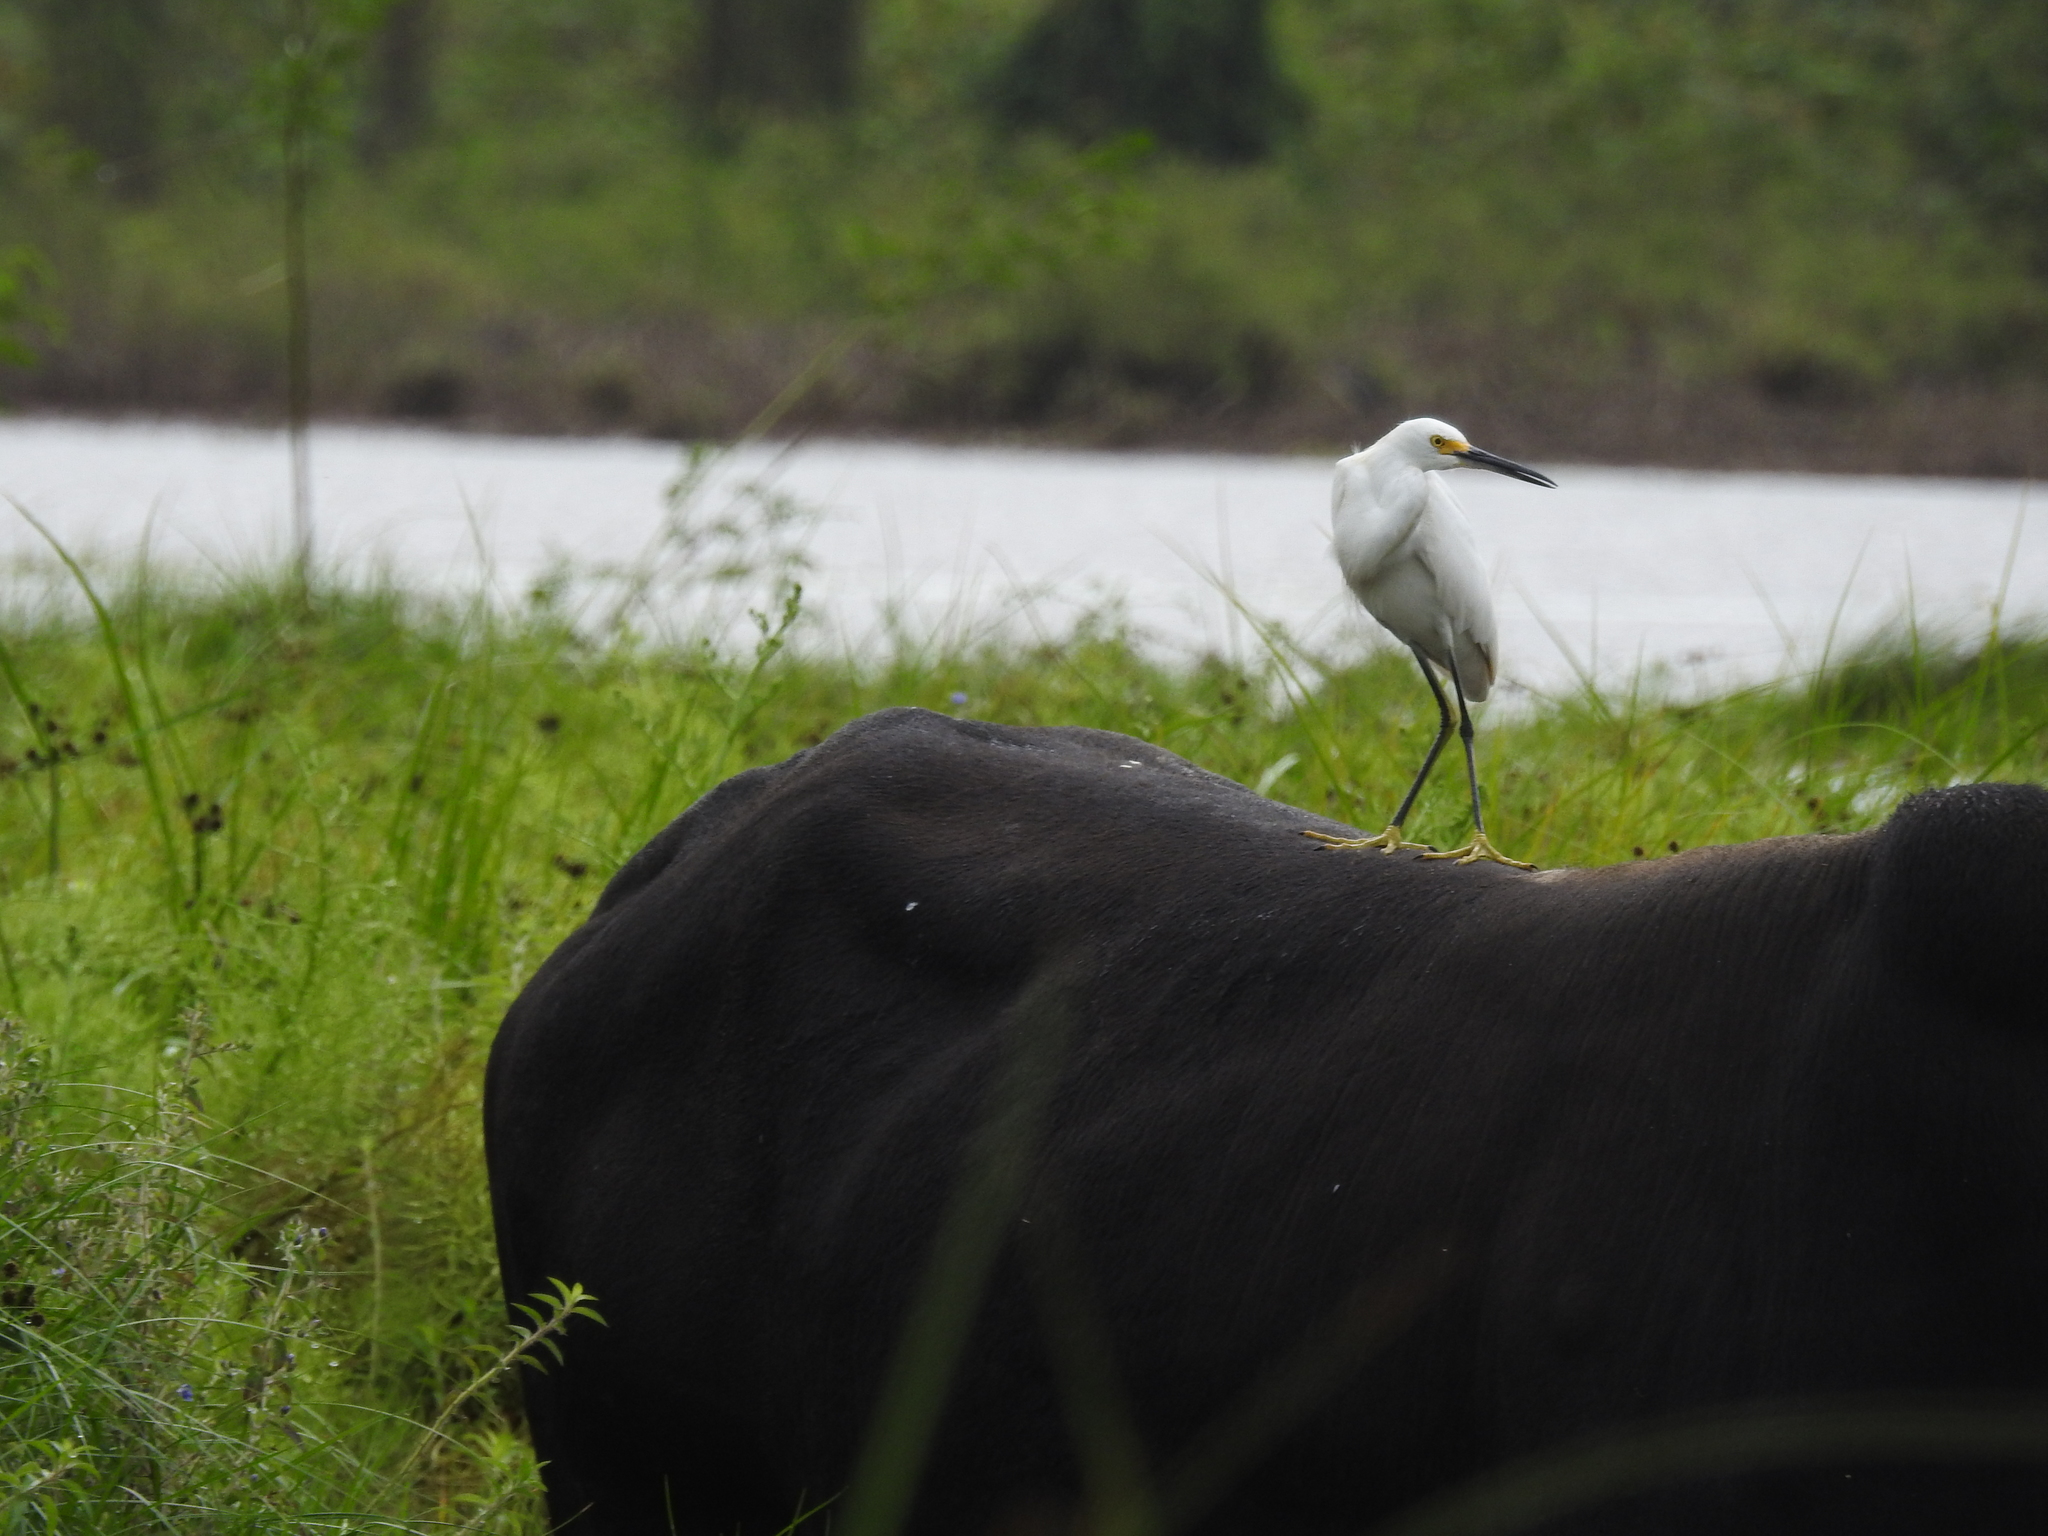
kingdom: Animalia
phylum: Chordata
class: Aves
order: Pelecaniformes
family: Ardeidae
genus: Egretta
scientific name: Egretta thula
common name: Snowy egret
